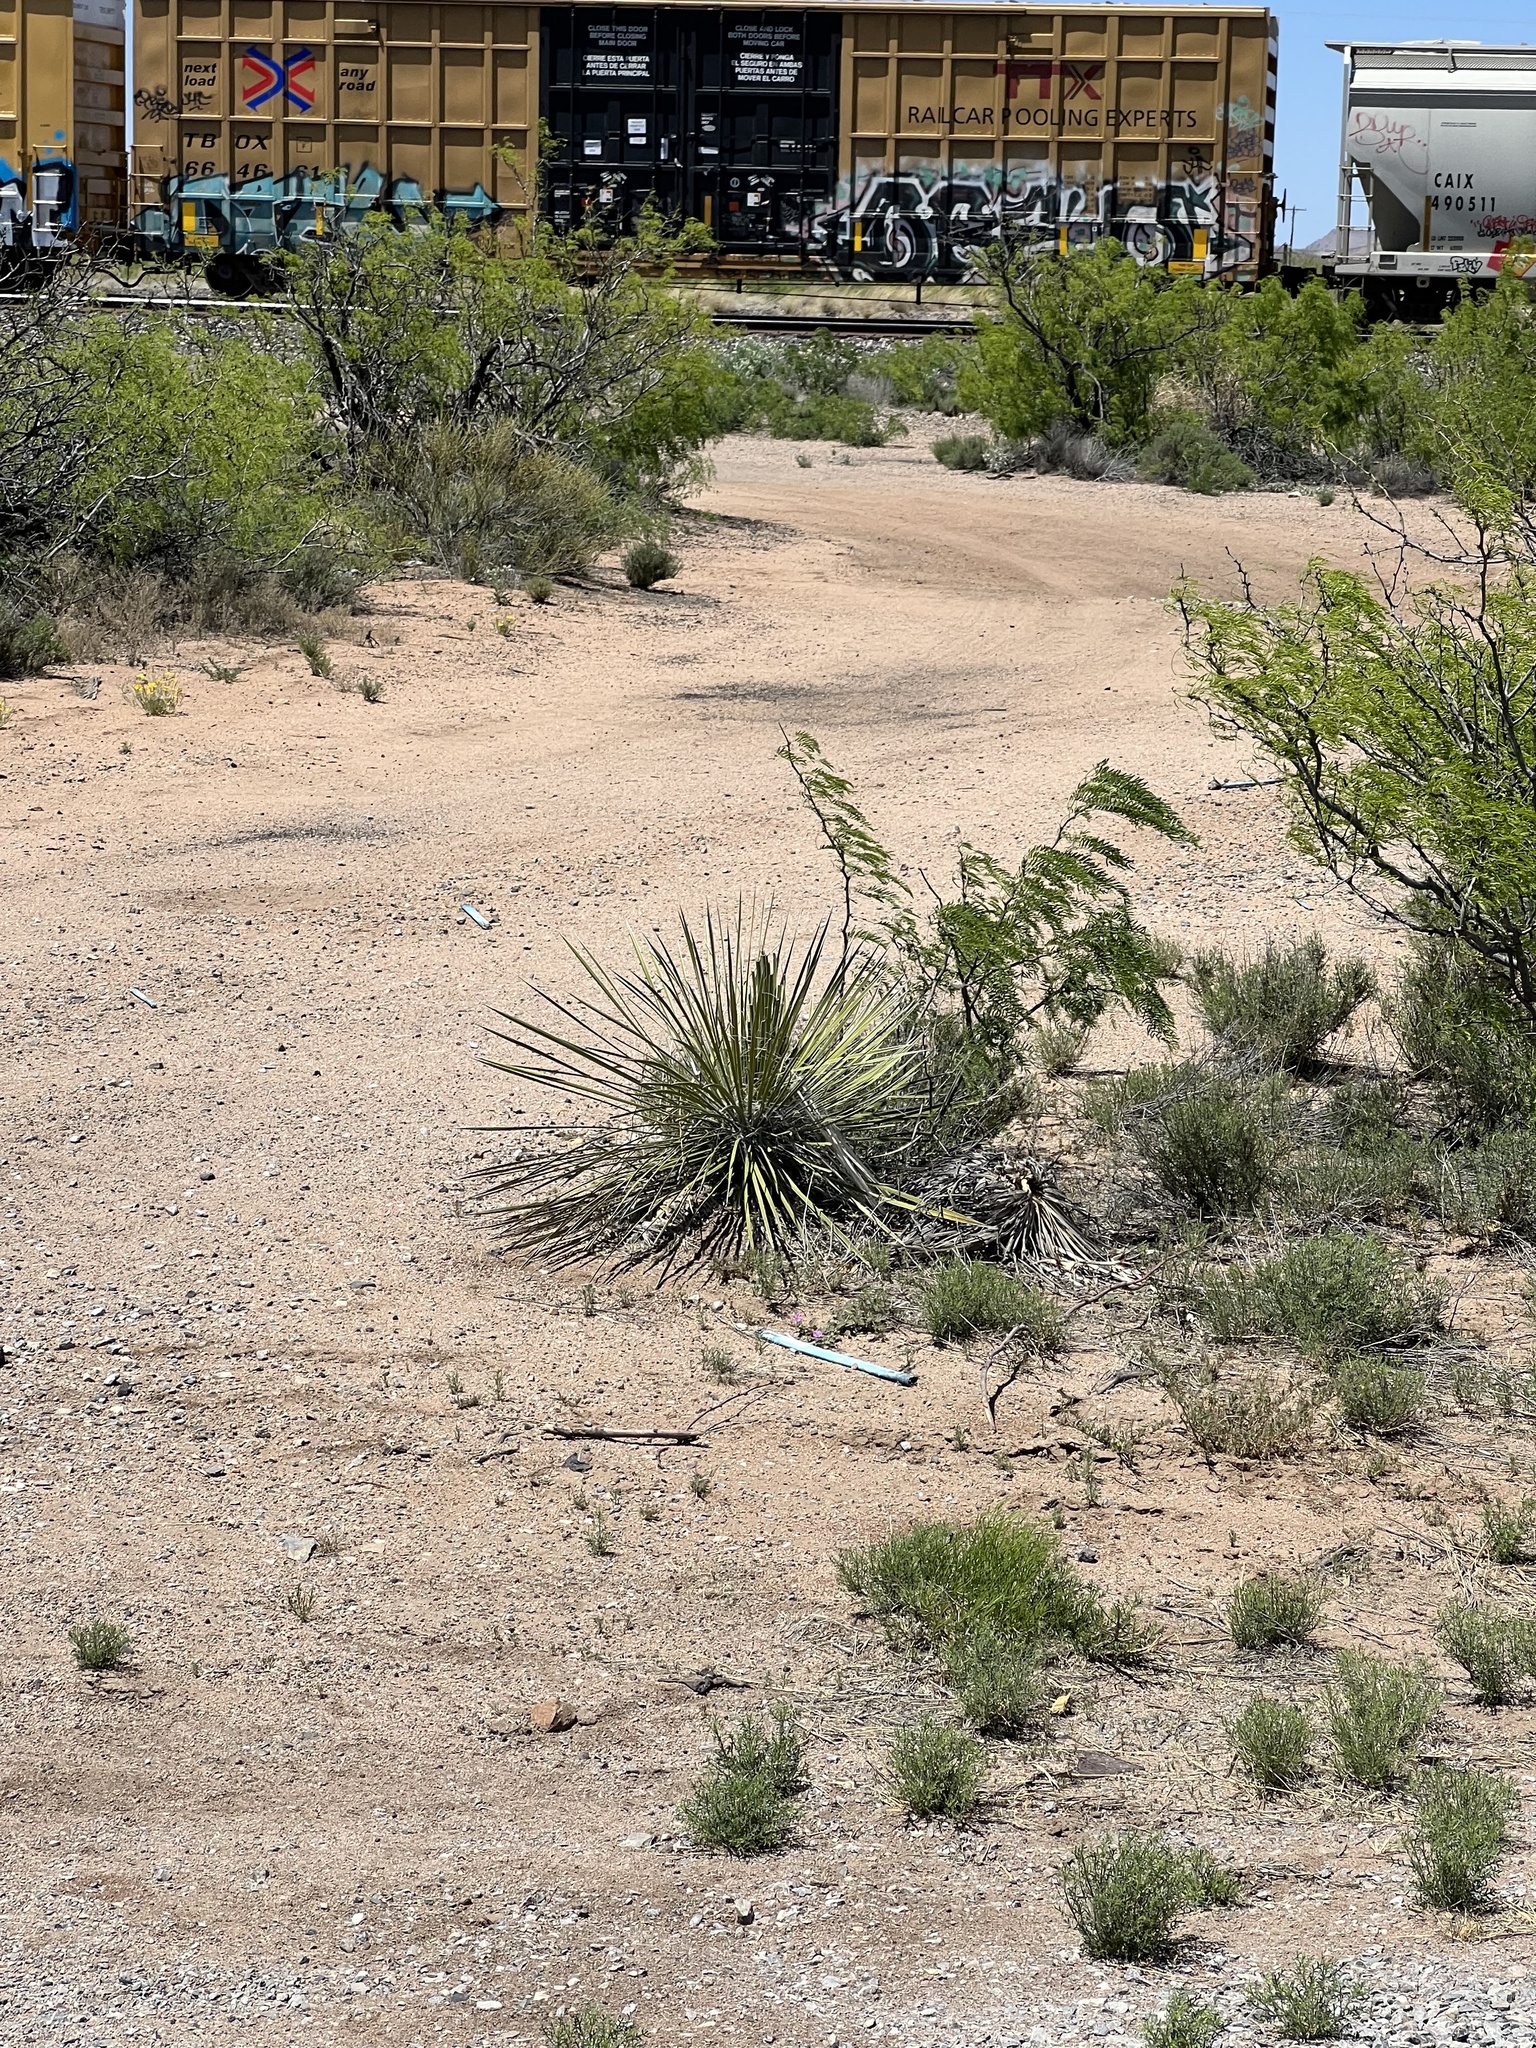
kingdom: Plantae
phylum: Tracheophyta
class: Liliopsida
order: Asparagales
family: Asparagaceae
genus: Yucca
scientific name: Yucca elata
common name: Palmella
